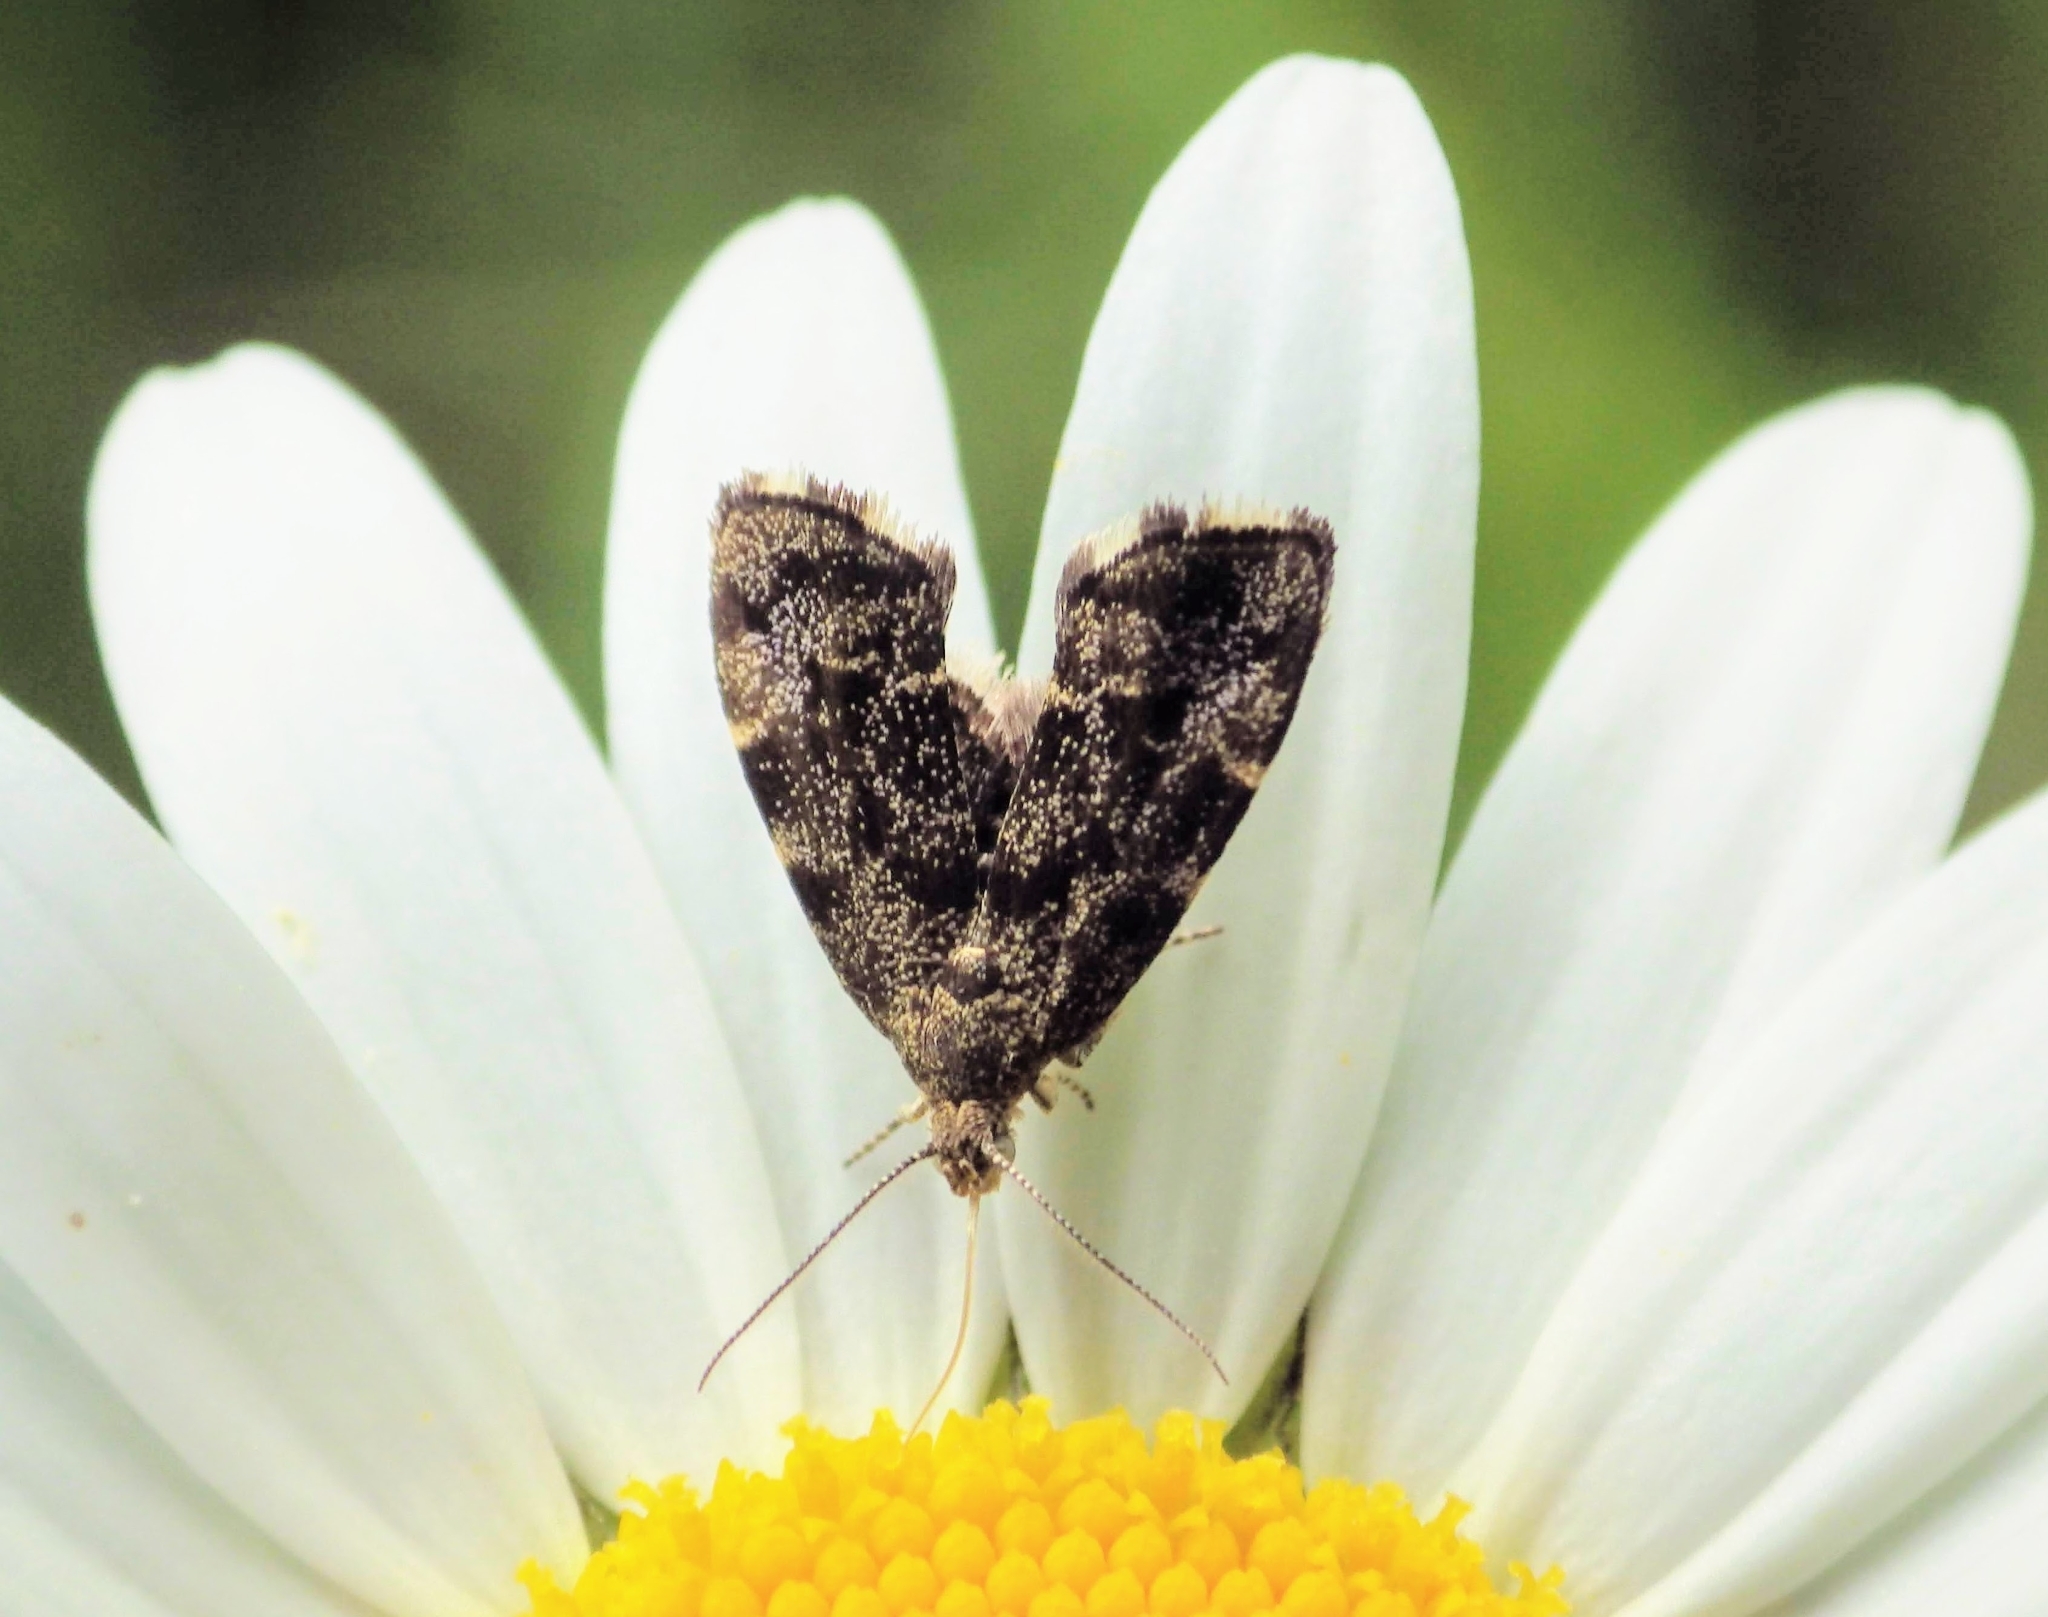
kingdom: Animalia
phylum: Arthropoda
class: Insecta
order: Lepidoptera
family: Choreutidae
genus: Anthophila
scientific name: Anthophila fabriciana
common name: Nettle-tap
